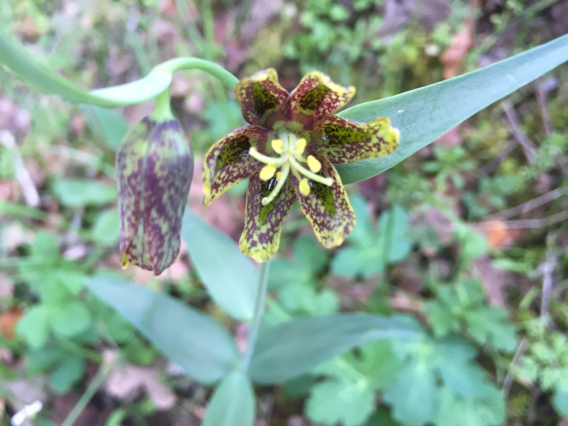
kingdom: Plantae
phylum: Tracheophyta
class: Liliopsida
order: Liliales
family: Liliaceae
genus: Fritillaria
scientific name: Fritillaria affinis
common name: Ojai fritillary
